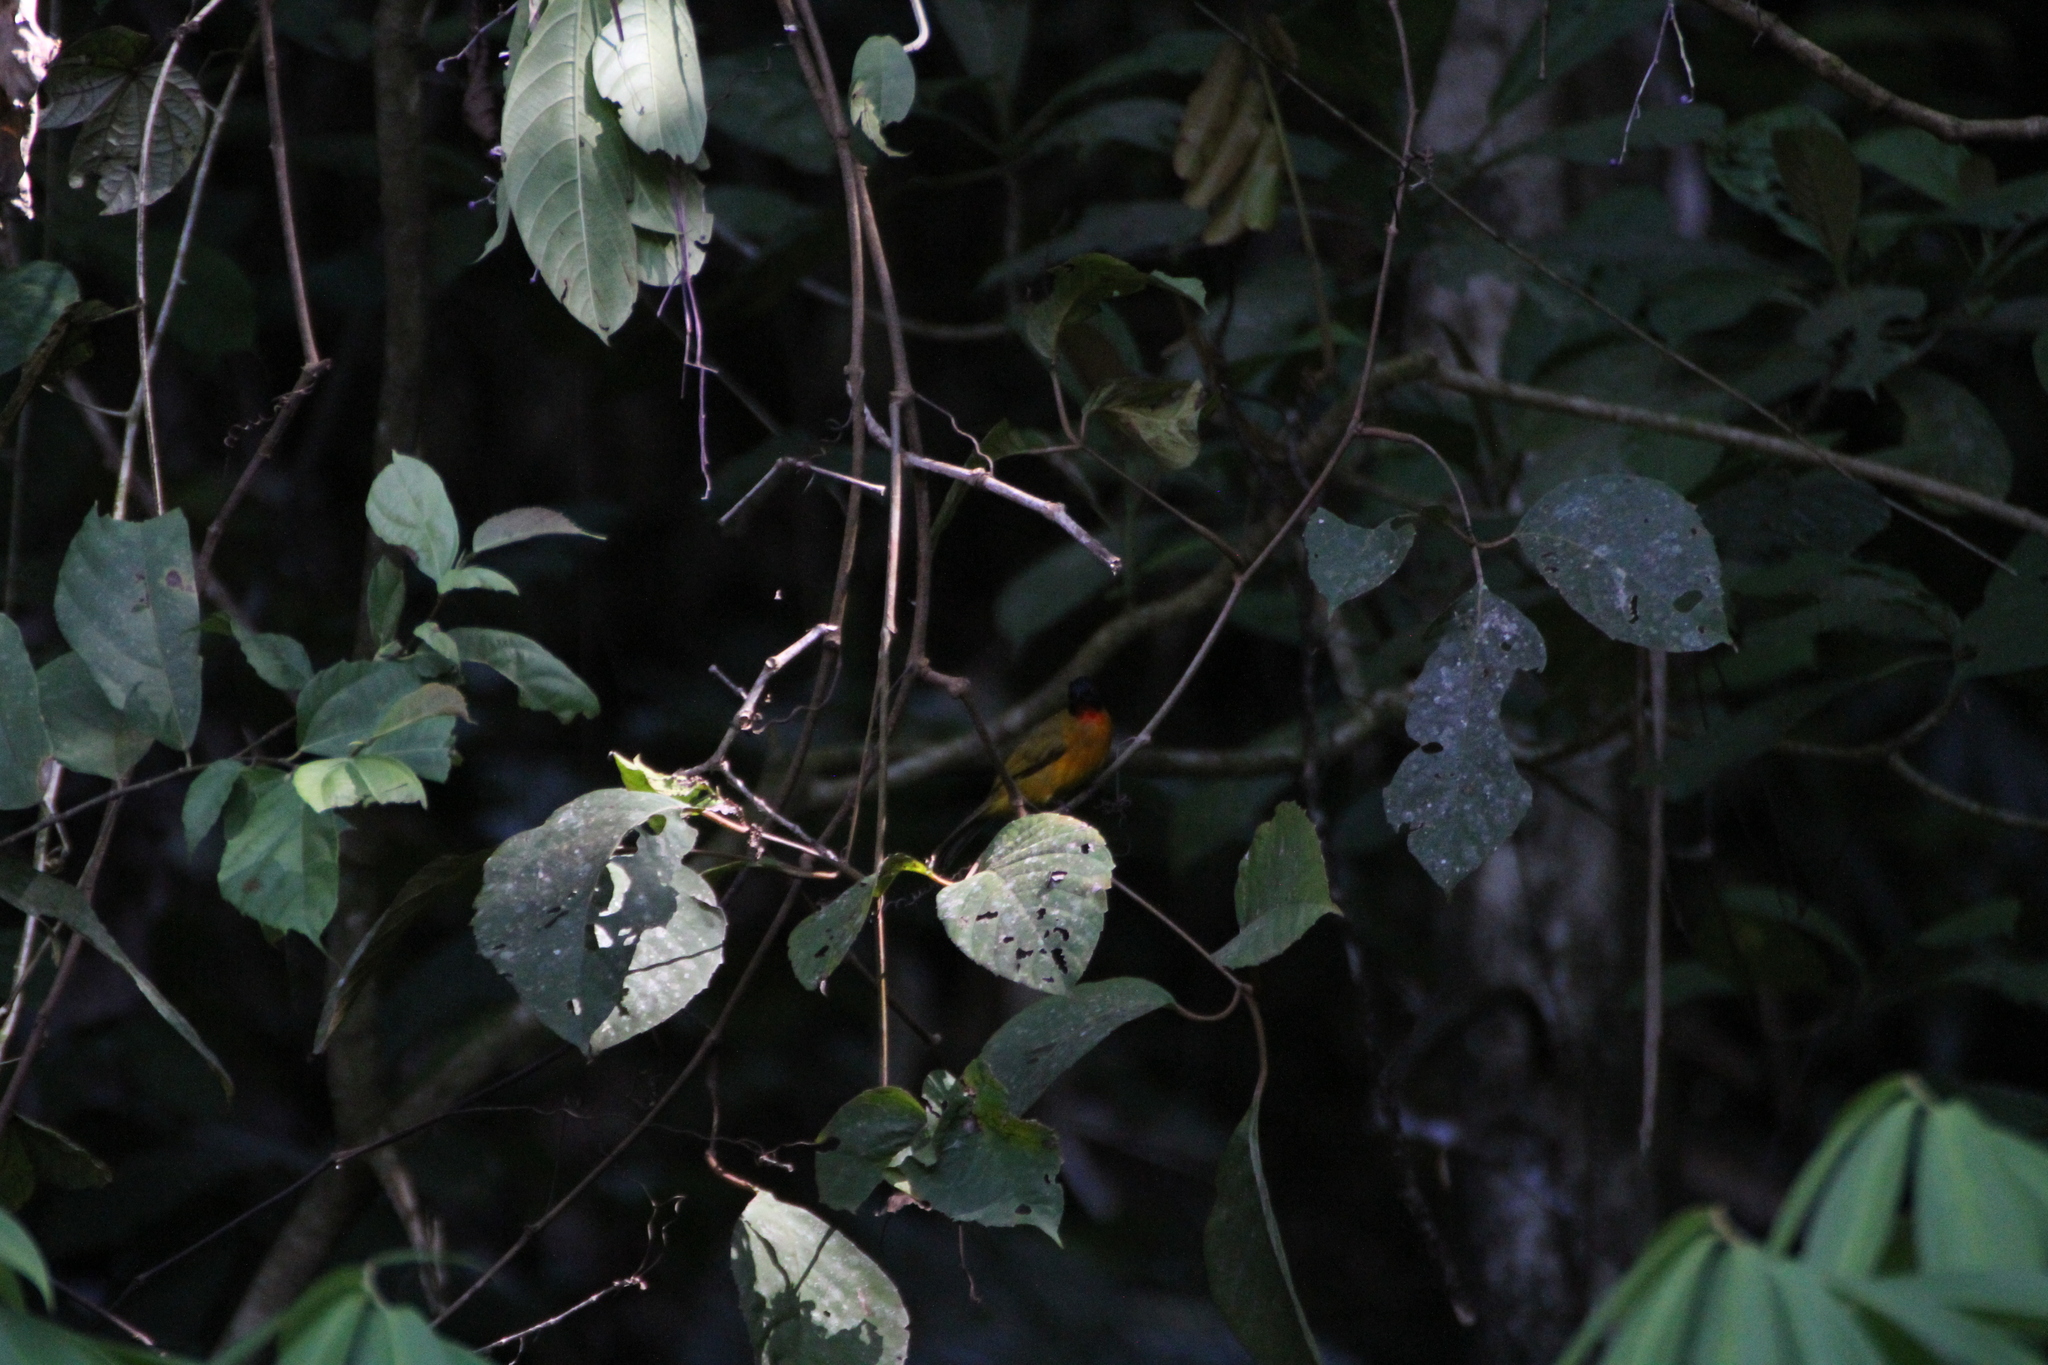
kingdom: Animalia
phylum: Chordata
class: Aves
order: Passeriformes
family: Pycnonotidae
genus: Pycnonotus
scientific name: Pycnonotus dispar
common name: Ruby-throated bulbul
